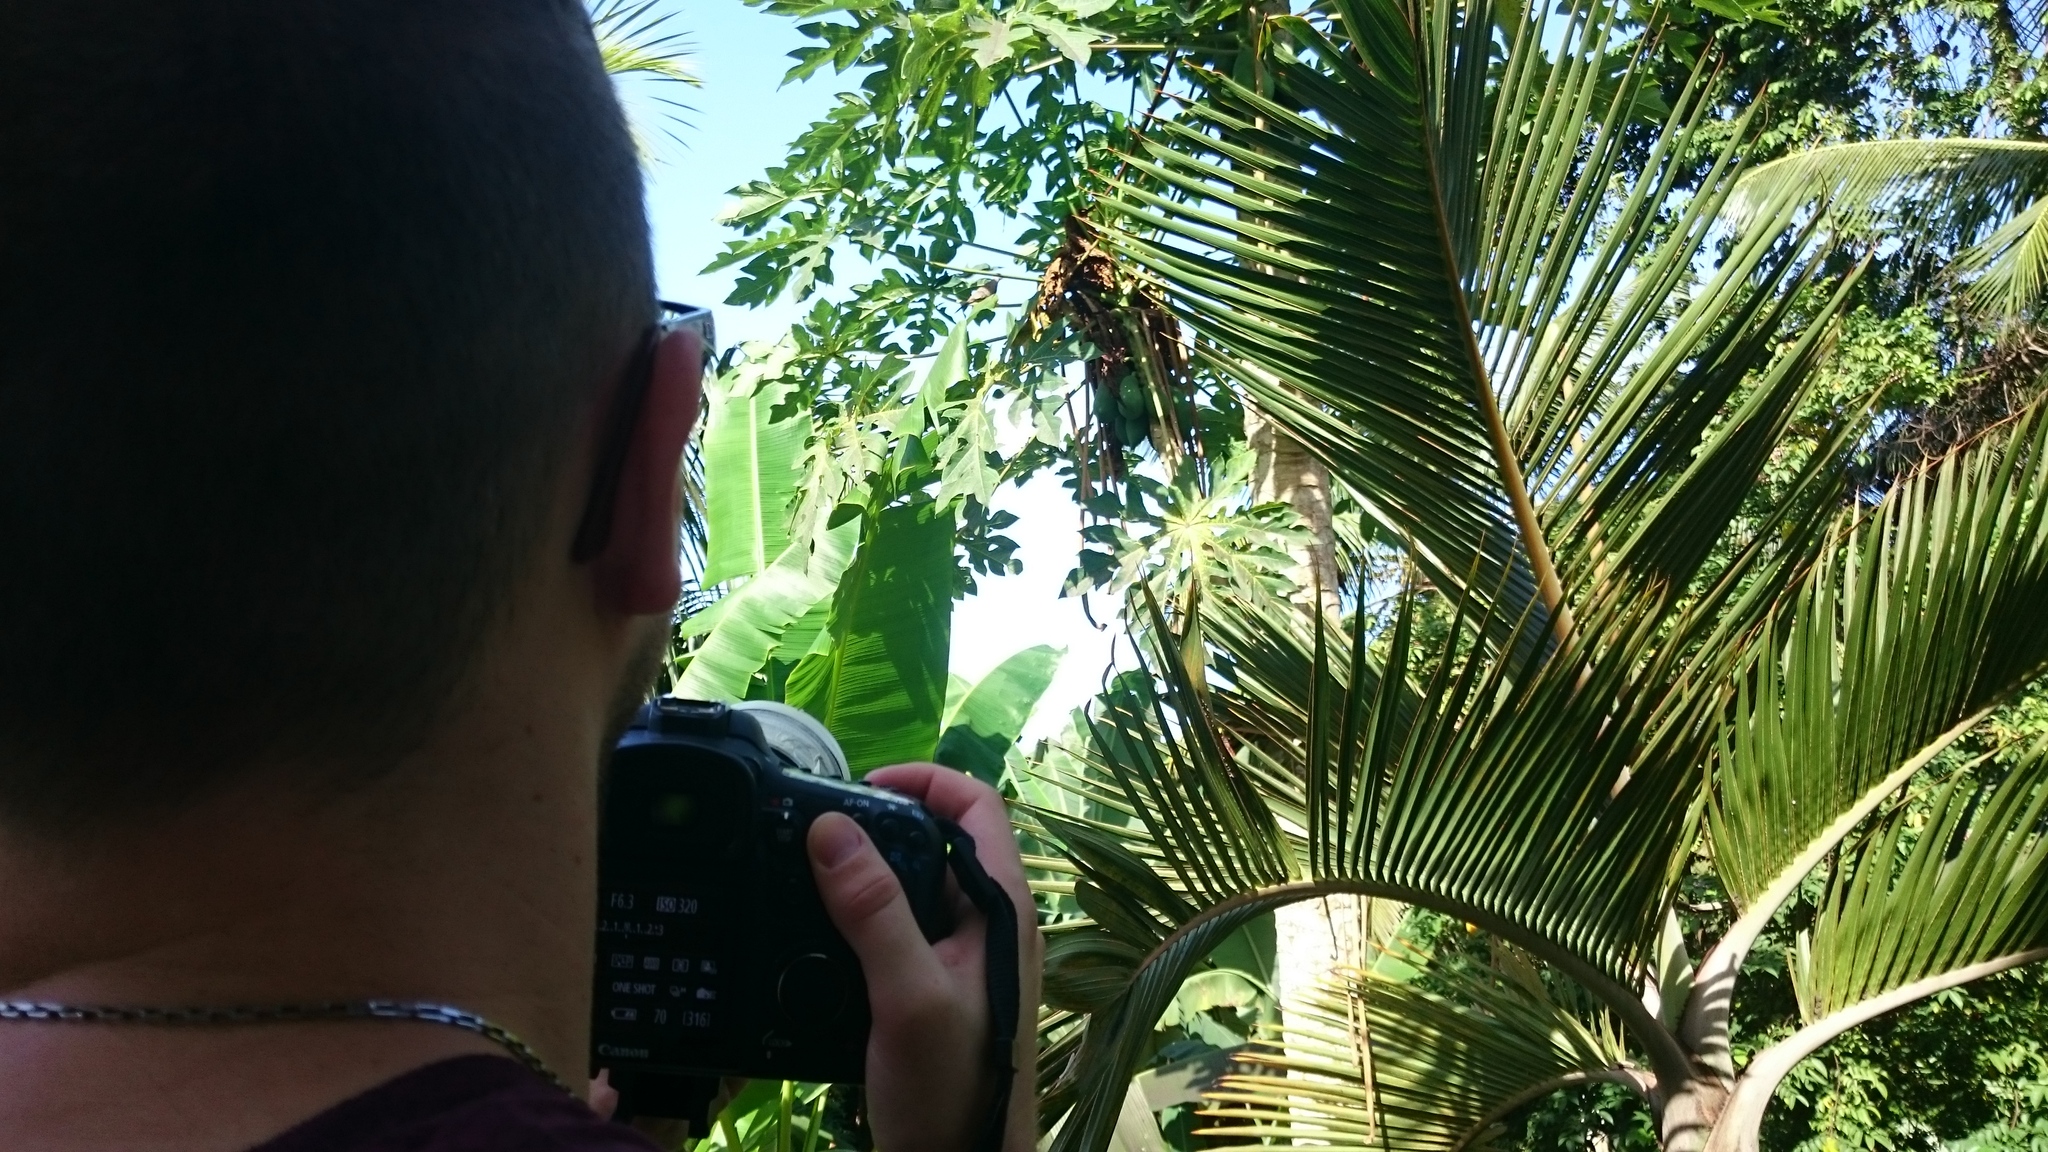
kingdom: Plantae
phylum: Tracheophyta
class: Magnoliopsida
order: Brassicales
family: Caricaceae
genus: Carica
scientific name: Carica papaya
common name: Papaya
